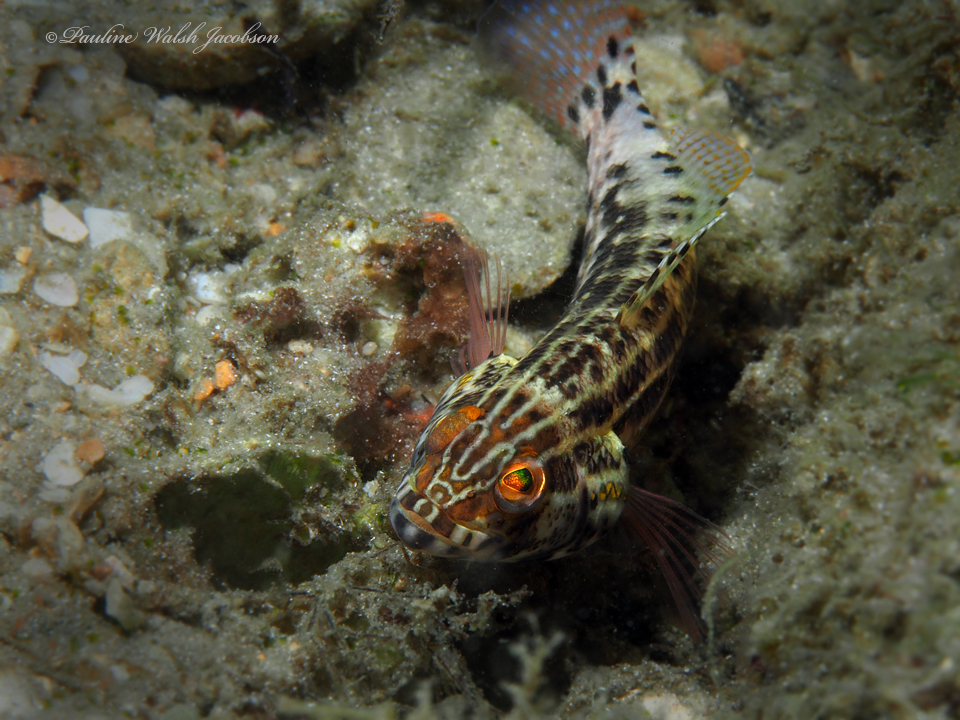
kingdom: Animalia
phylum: Chordata
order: Perciformes
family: Serranidae
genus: Serranus
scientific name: Serranus baldwini
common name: Lantern bass
